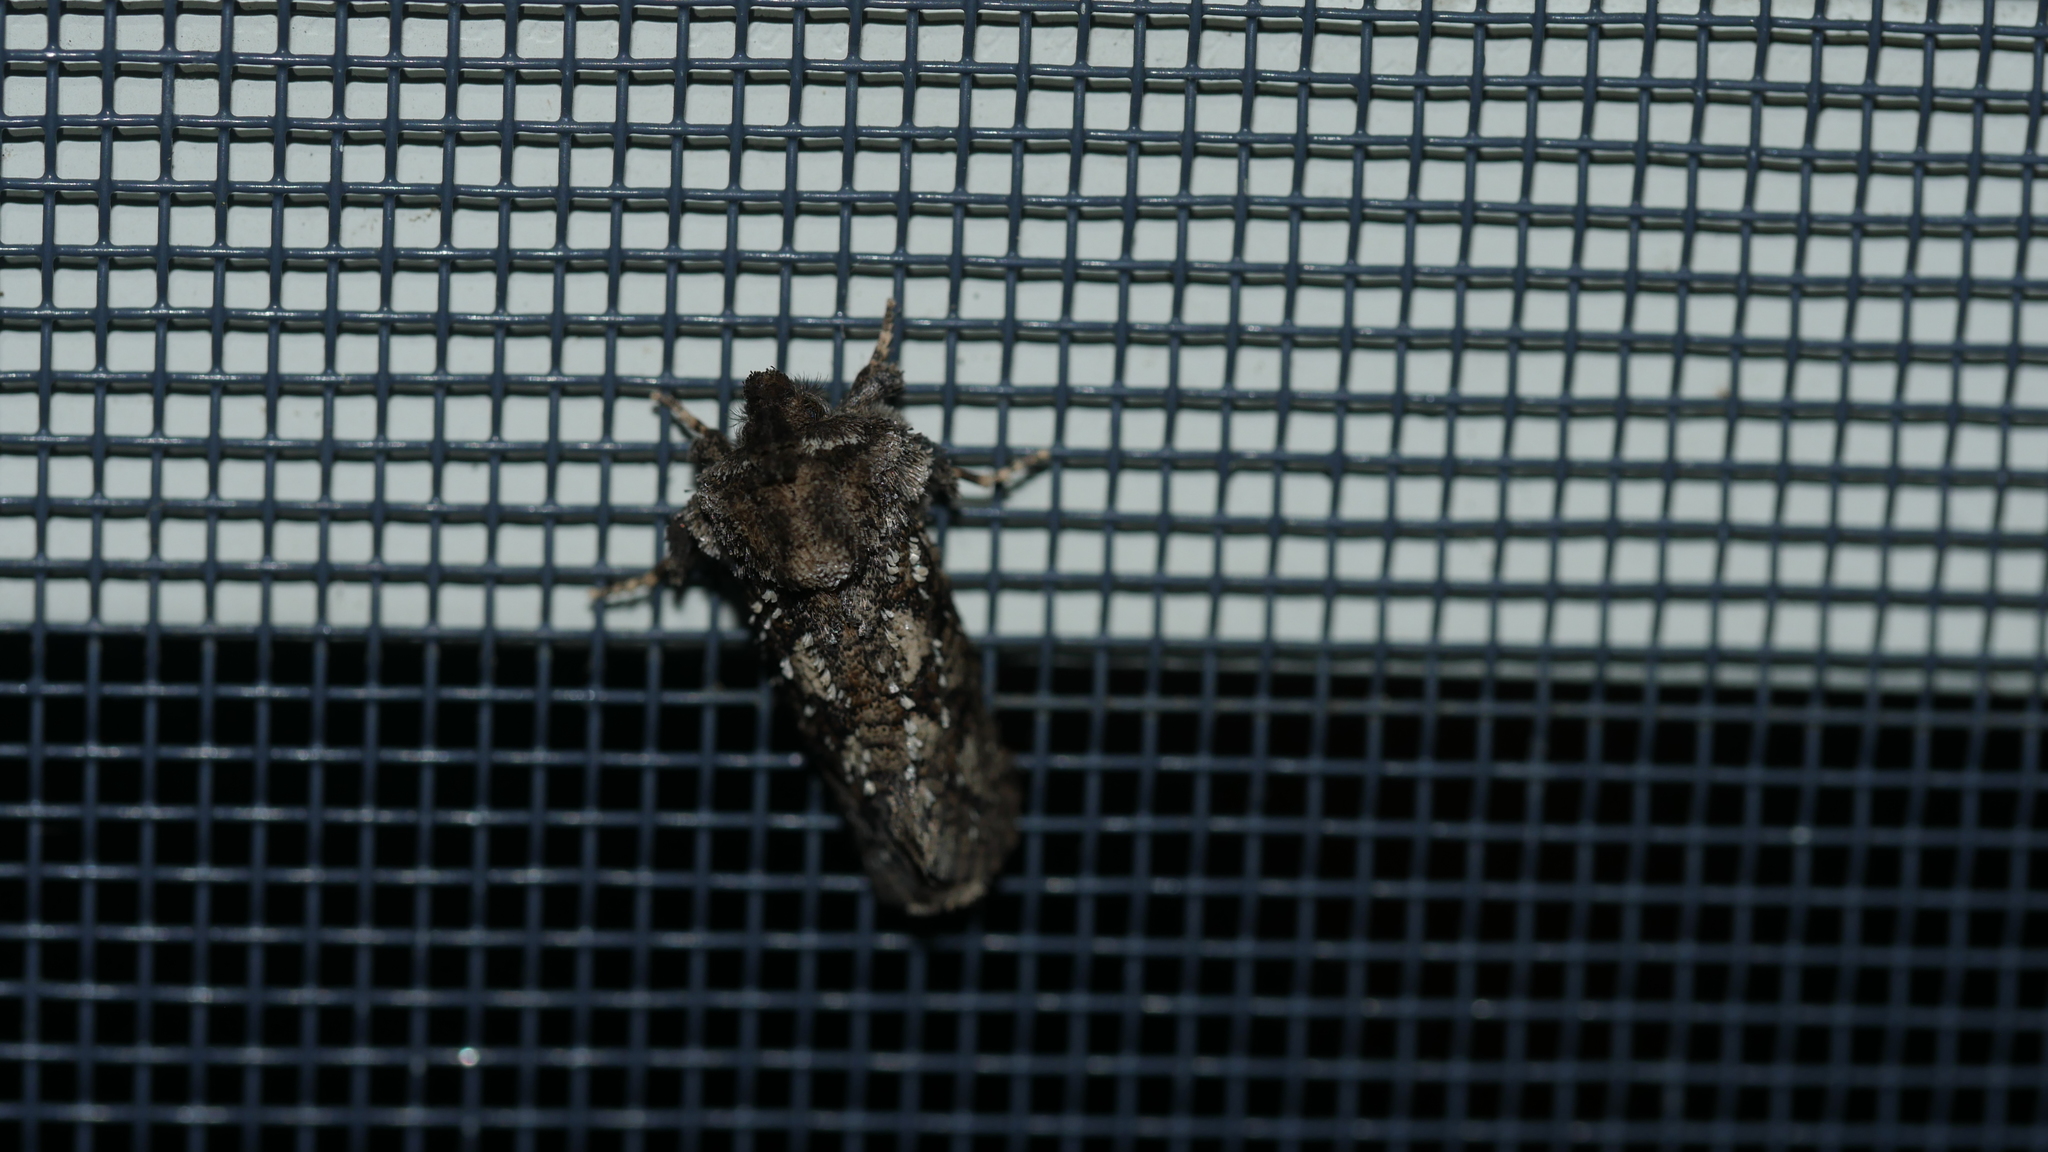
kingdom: Animalia
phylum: Arthropoda
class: Insecta
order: Lepidoptera
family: Tineidae
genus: Acrolophus
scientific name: Acrolophus arcanella
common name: Arcane grass tubeworm moth
